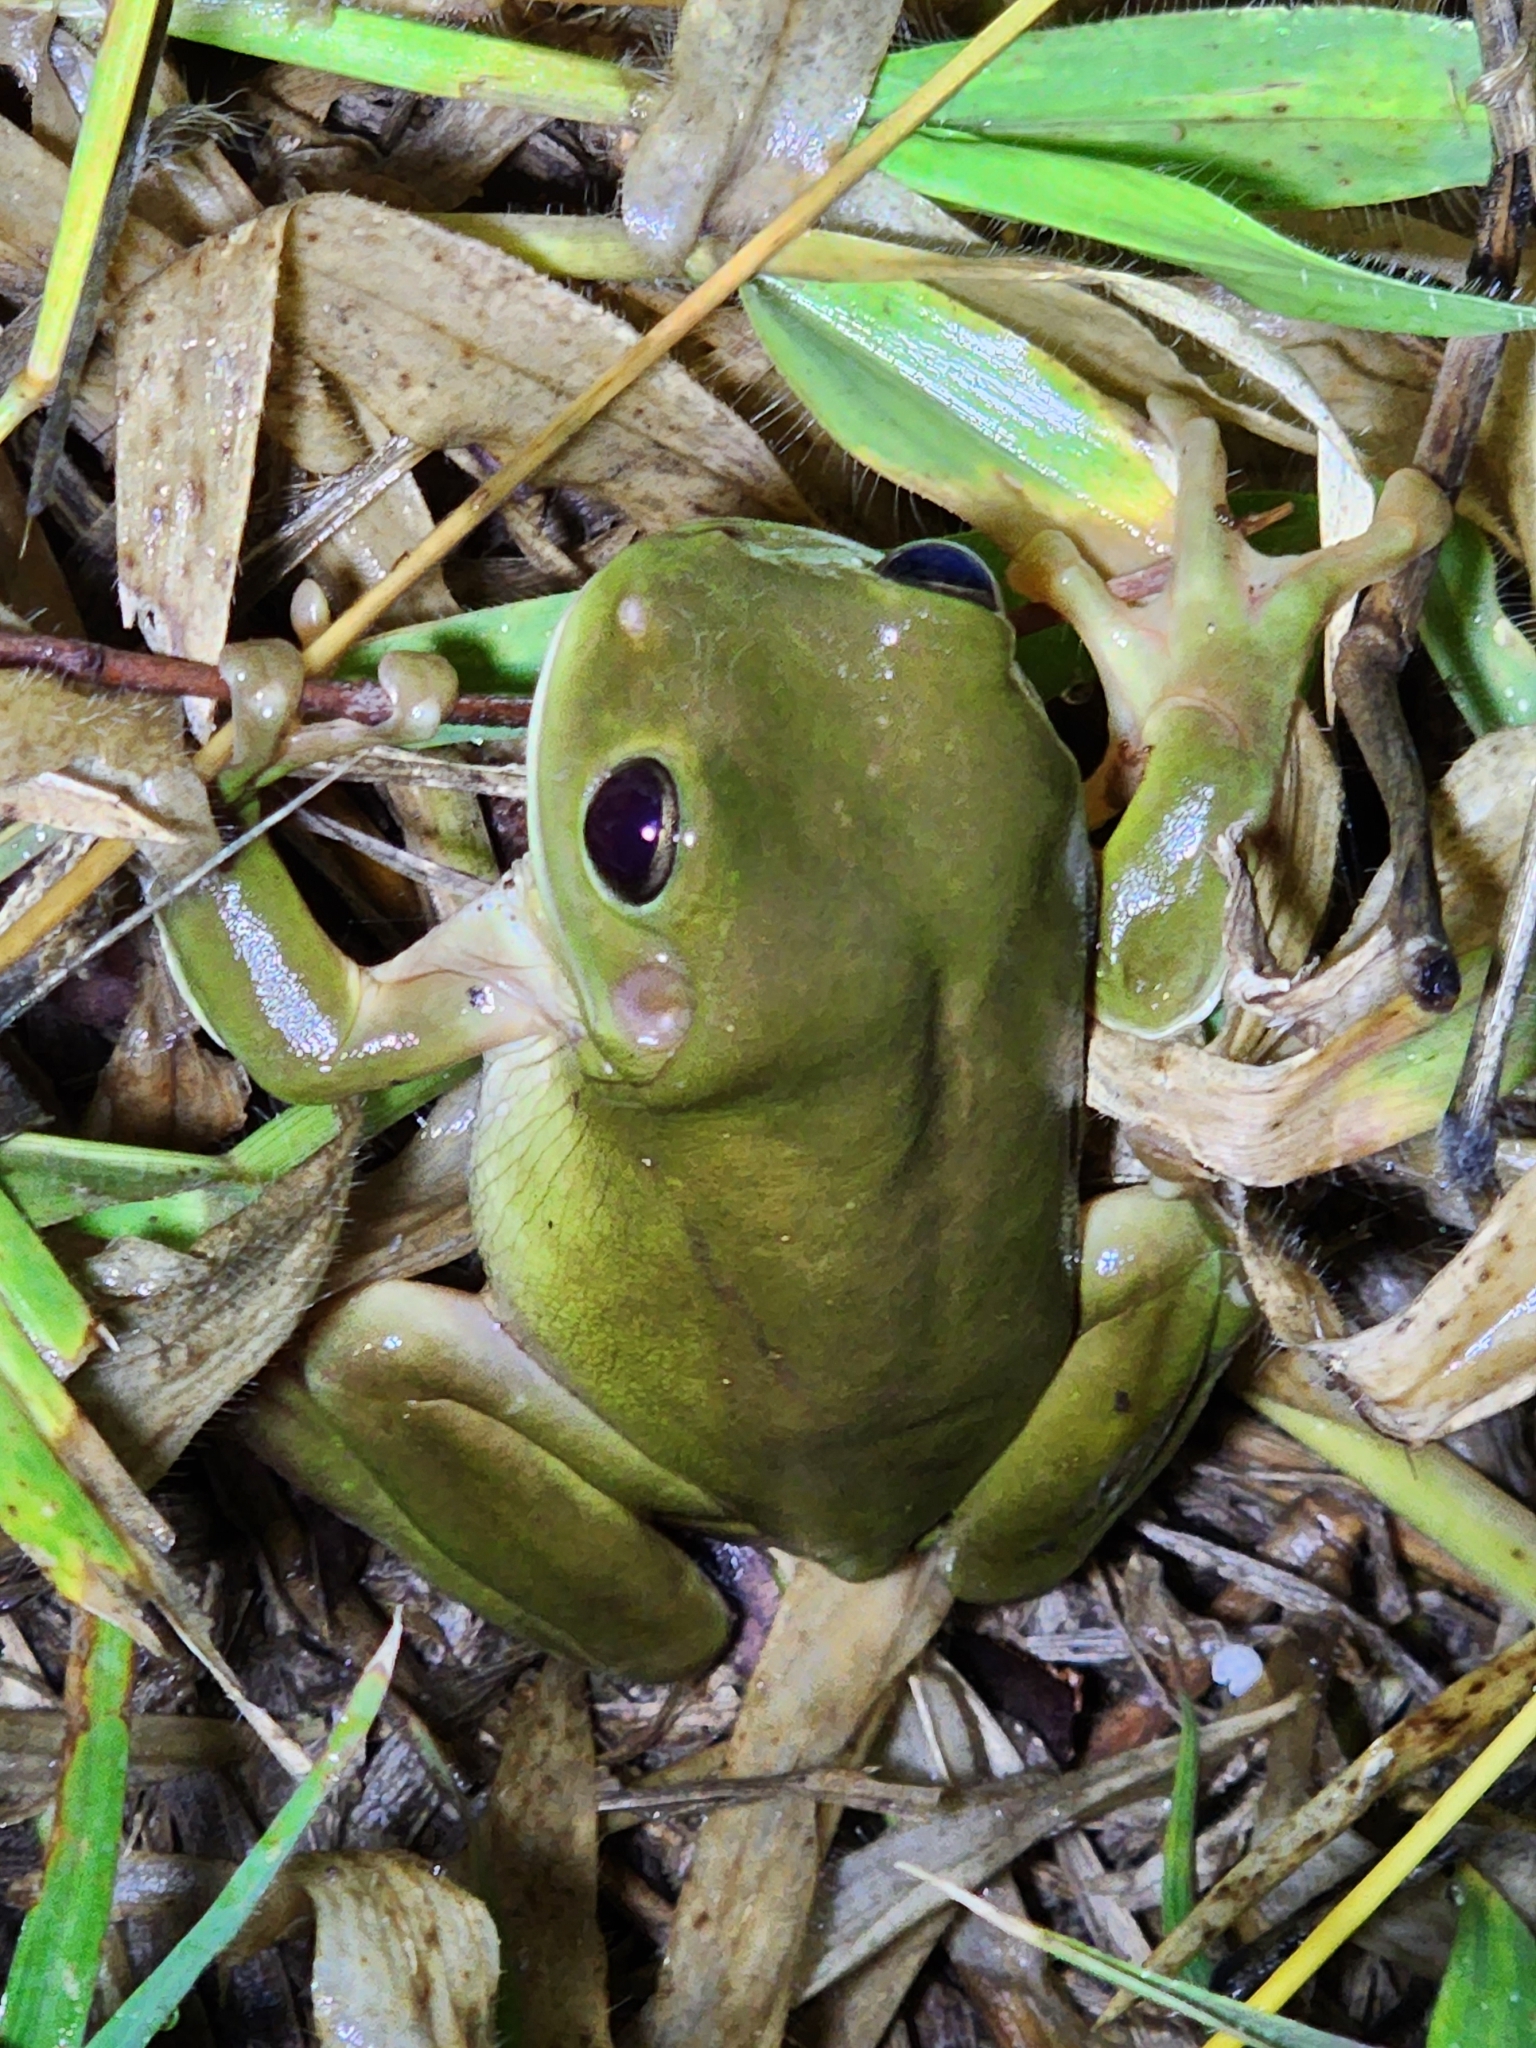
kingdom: Animalia
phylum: Chordata
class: Amphibia
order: Anura
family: Pelodryadidae
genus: Ranoidea
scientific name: Ranoidea caerulea
